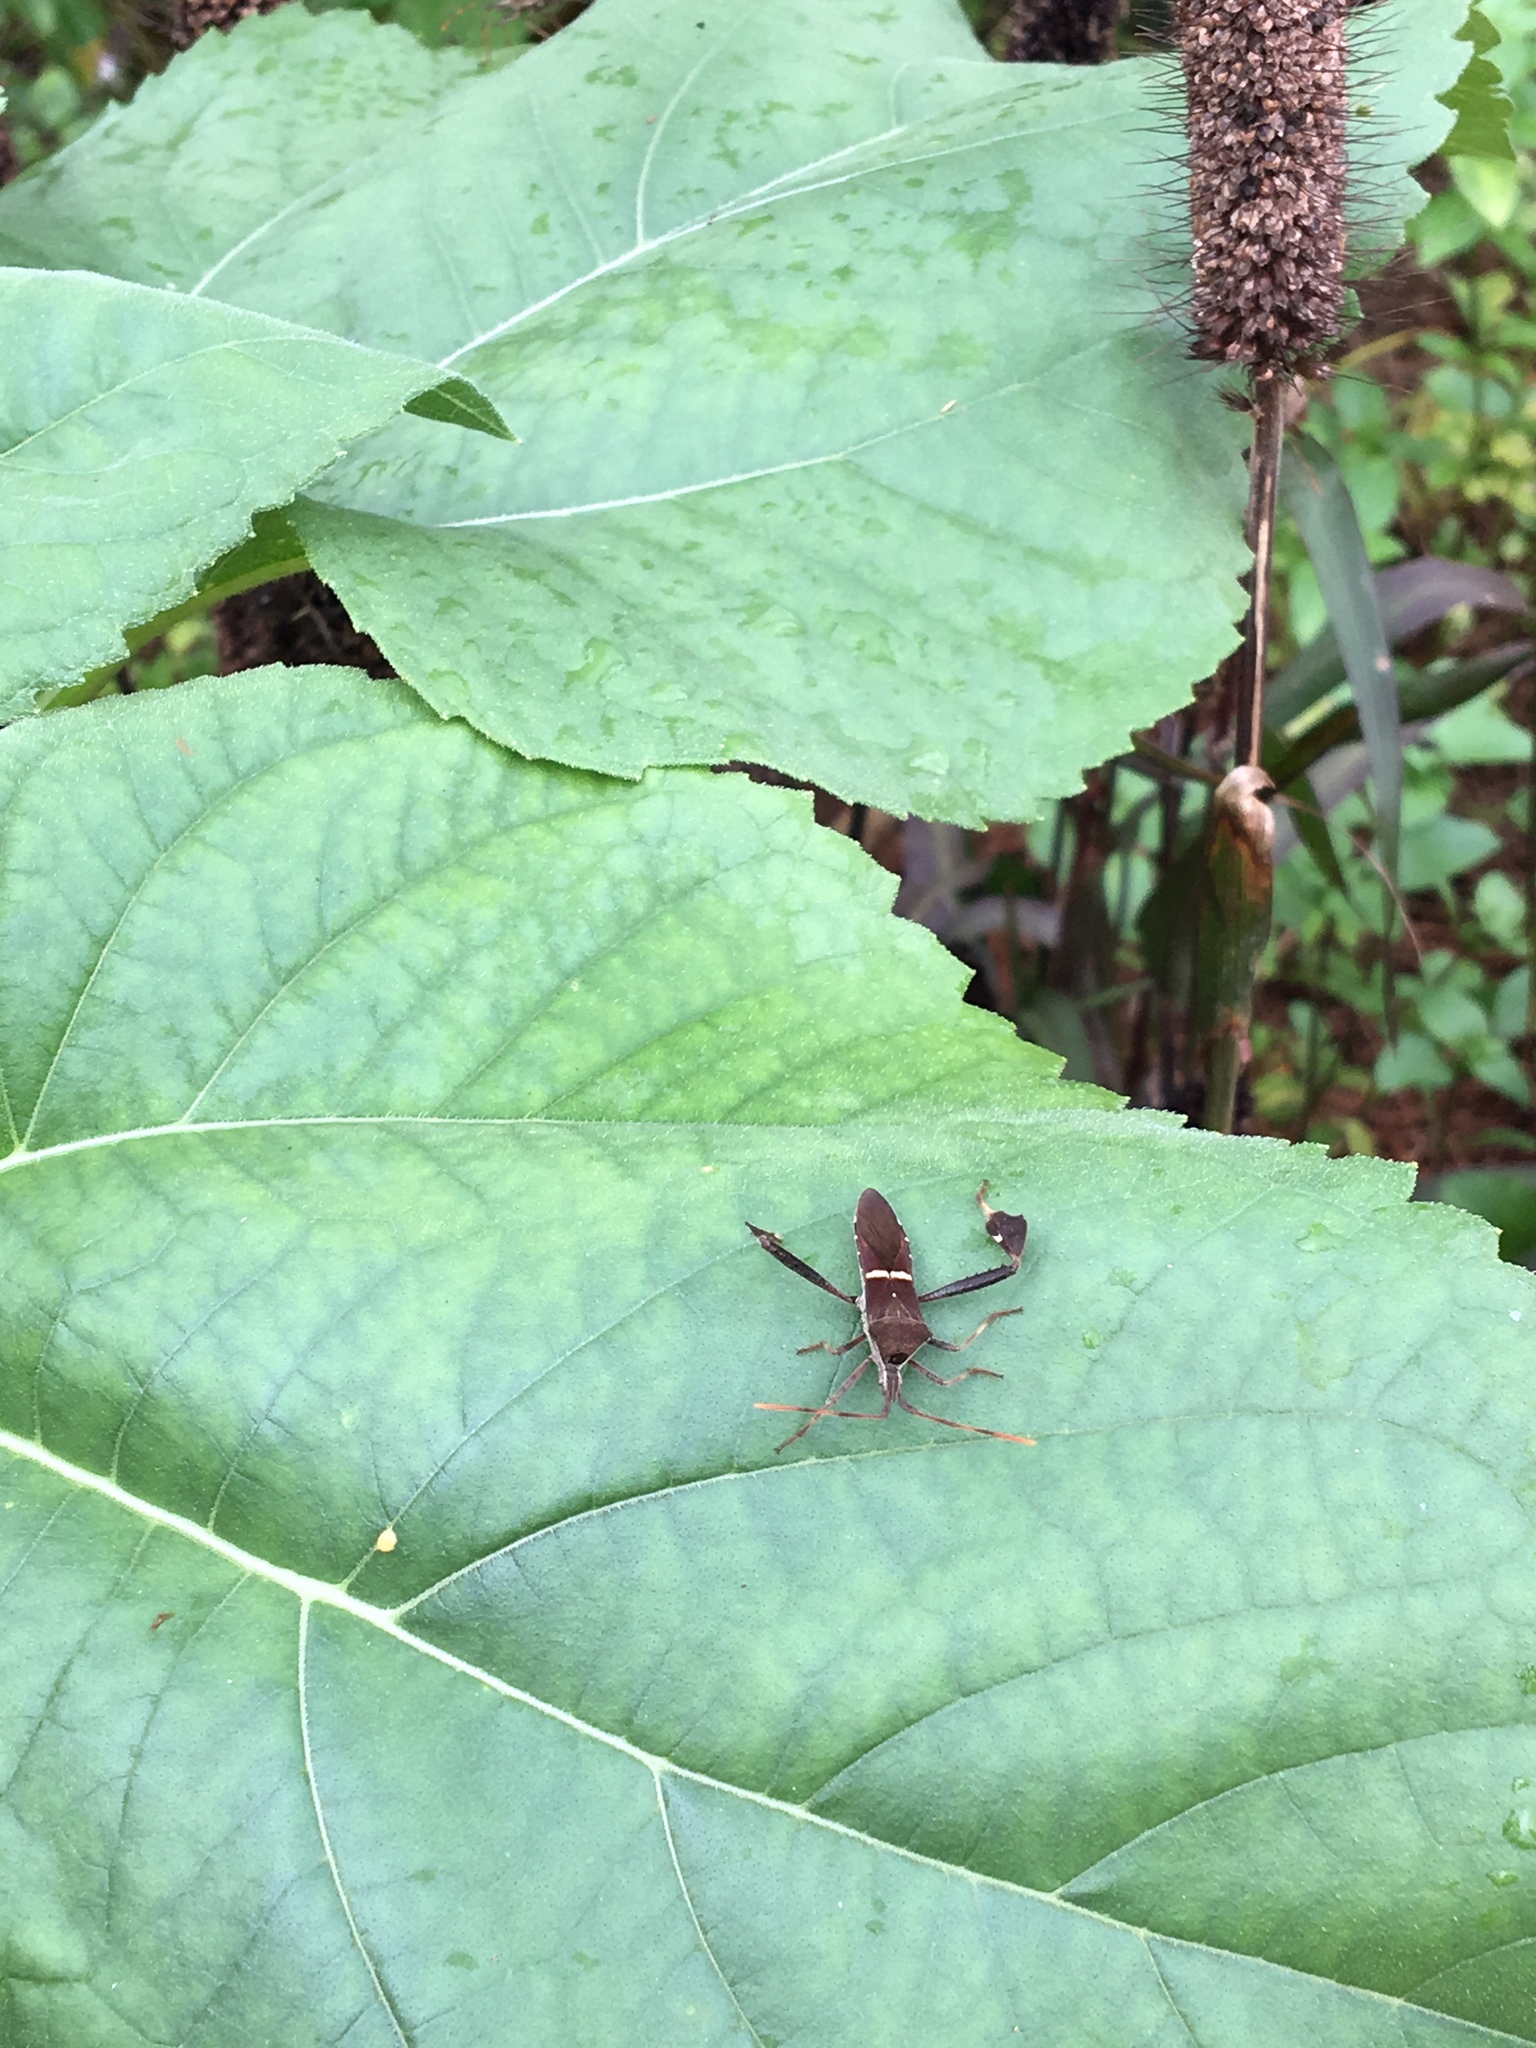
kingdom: Animalia
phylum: Arthropoda
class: Insecta
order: Hemiptera
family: Coreidae
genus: Leptoglossus
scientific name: Leptoglossus phyllopus
